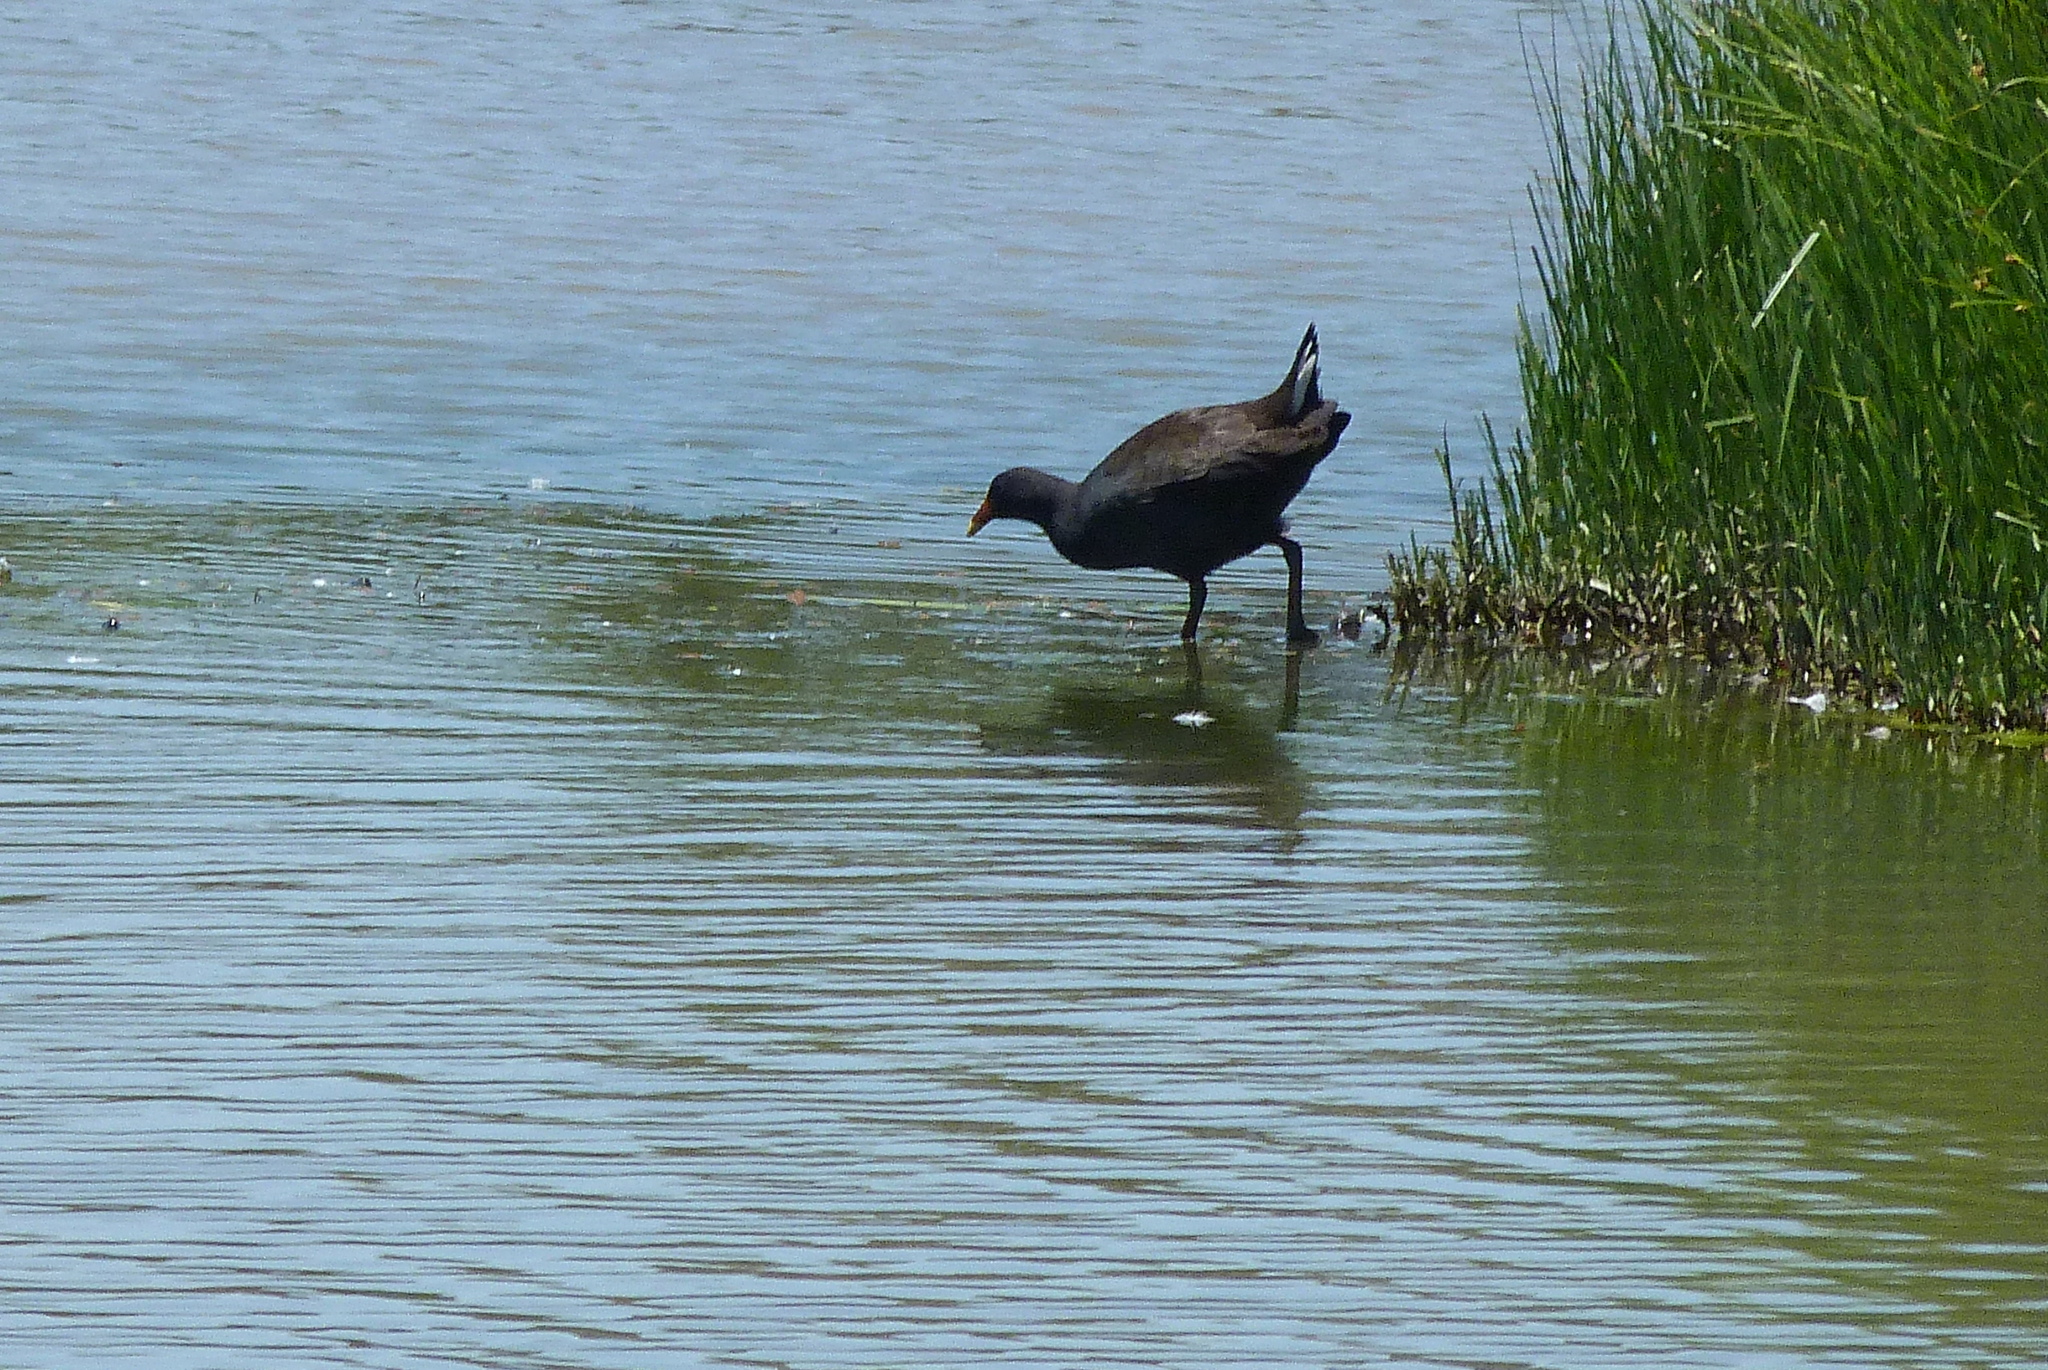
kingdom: Animalia
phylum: Chordata
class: Aves
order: Gruiformes
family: Rallidae
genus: Gallinula
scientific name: Gallinula tenebrosa
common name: Dusky moorhen
